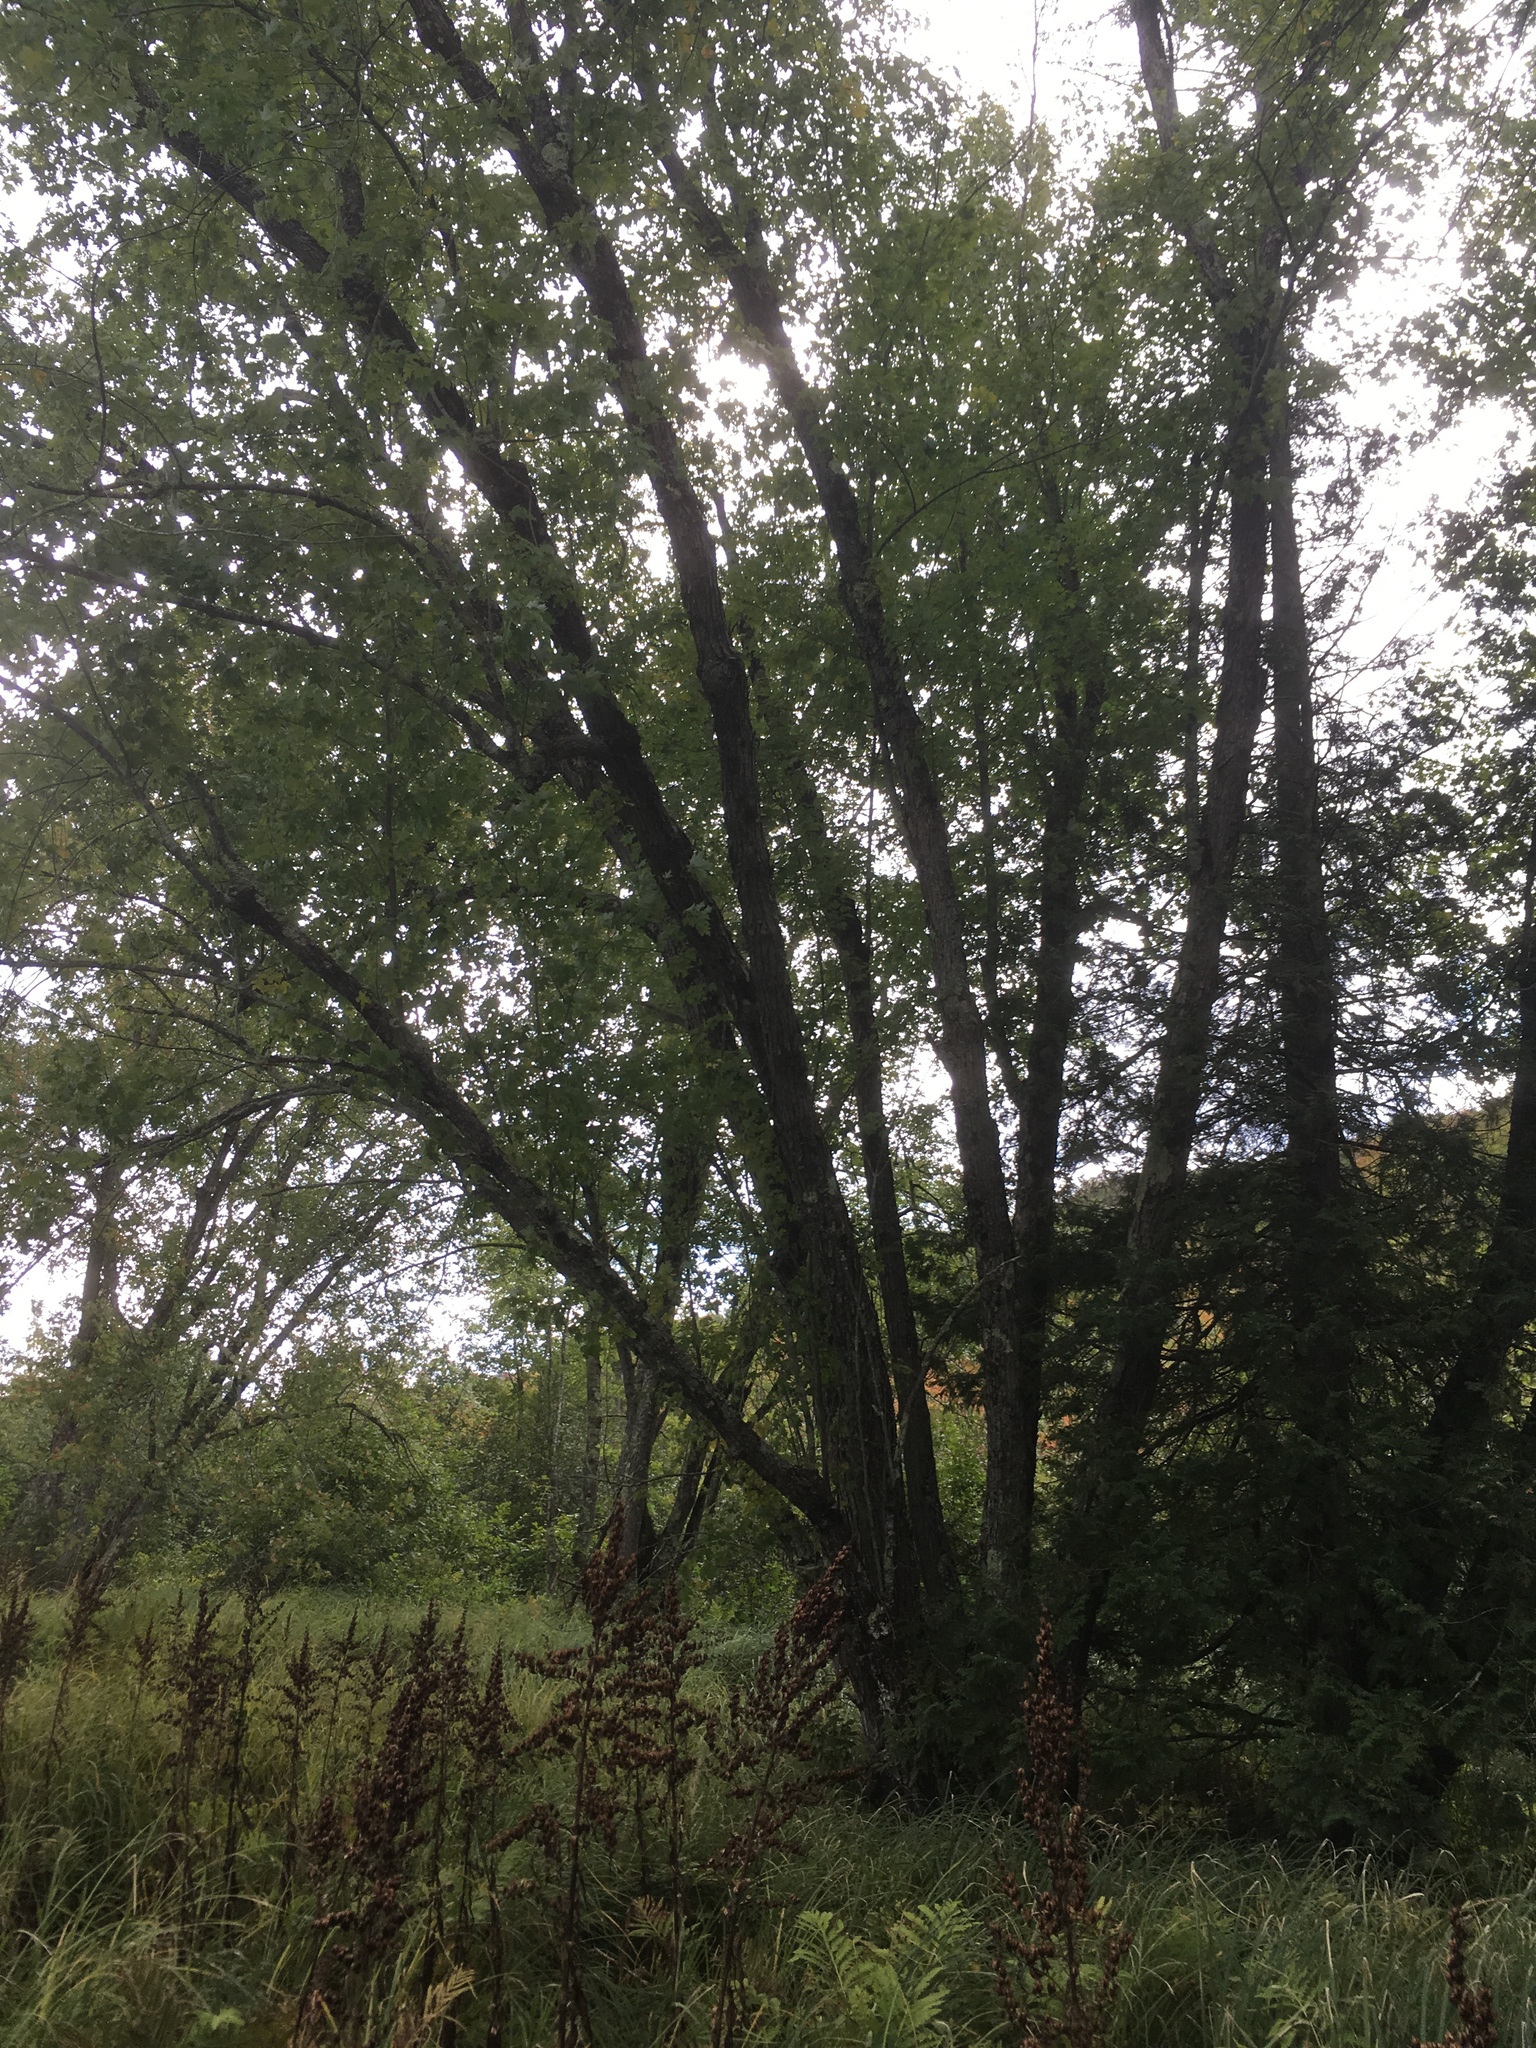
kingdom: Plantae
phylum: Tracheophyta
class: Magnoliopsida
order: Sapindales
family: Sapindaceae
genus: Acer
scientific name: Acer saccharinum
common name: Silver maple
